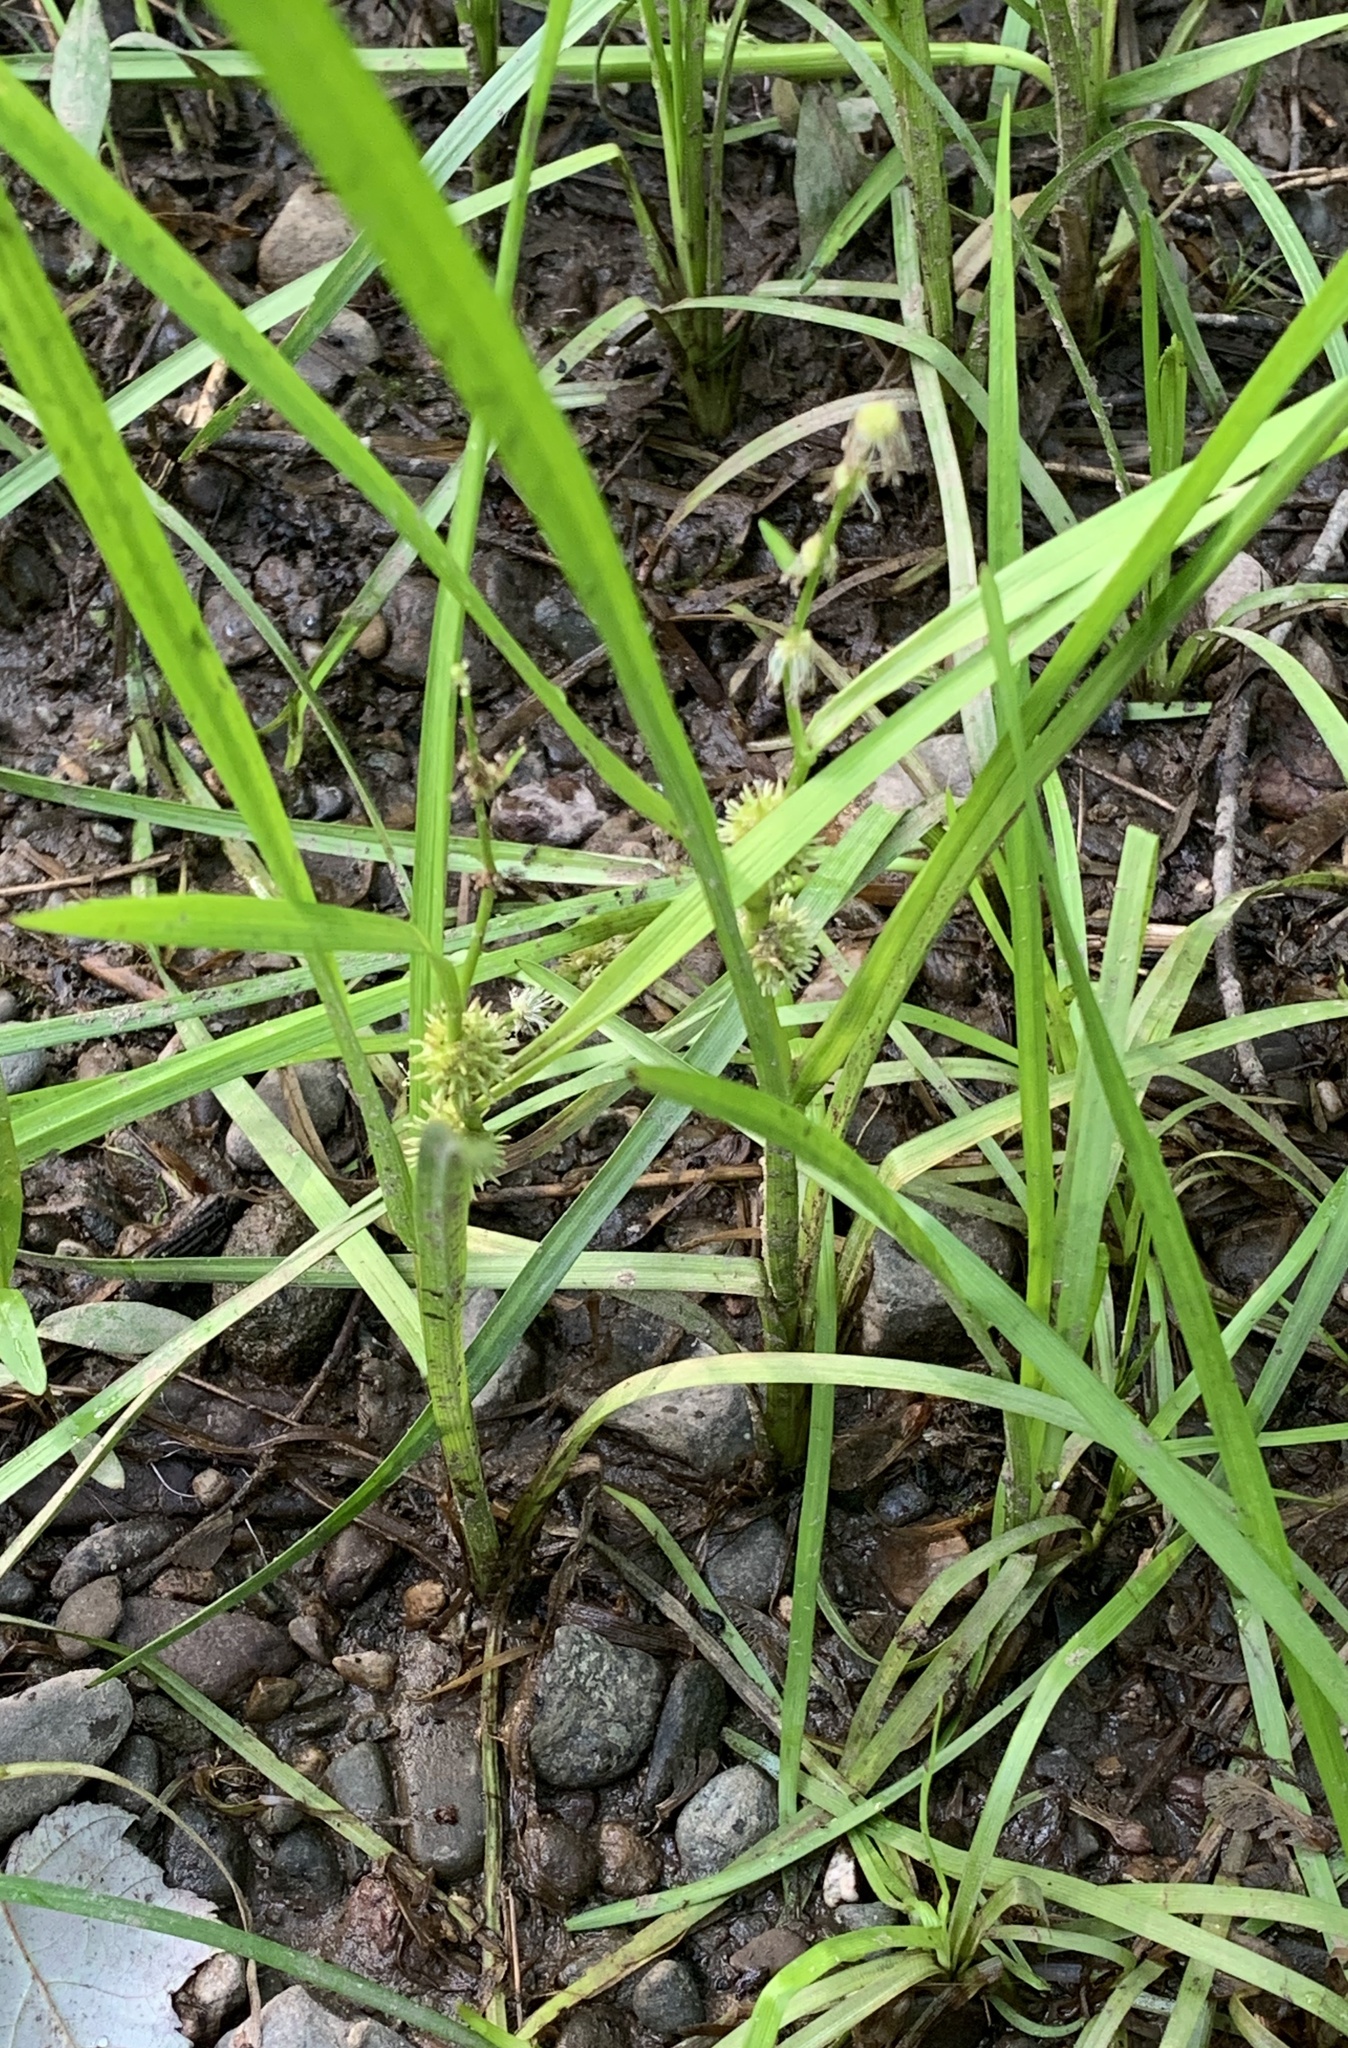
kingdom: Plantae
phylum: Tracheophyta
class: Liliopsida
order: Poales
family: Typhaceae
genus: Sparganium
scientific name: Sparganium emersum
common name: Unbranched bur-reed
